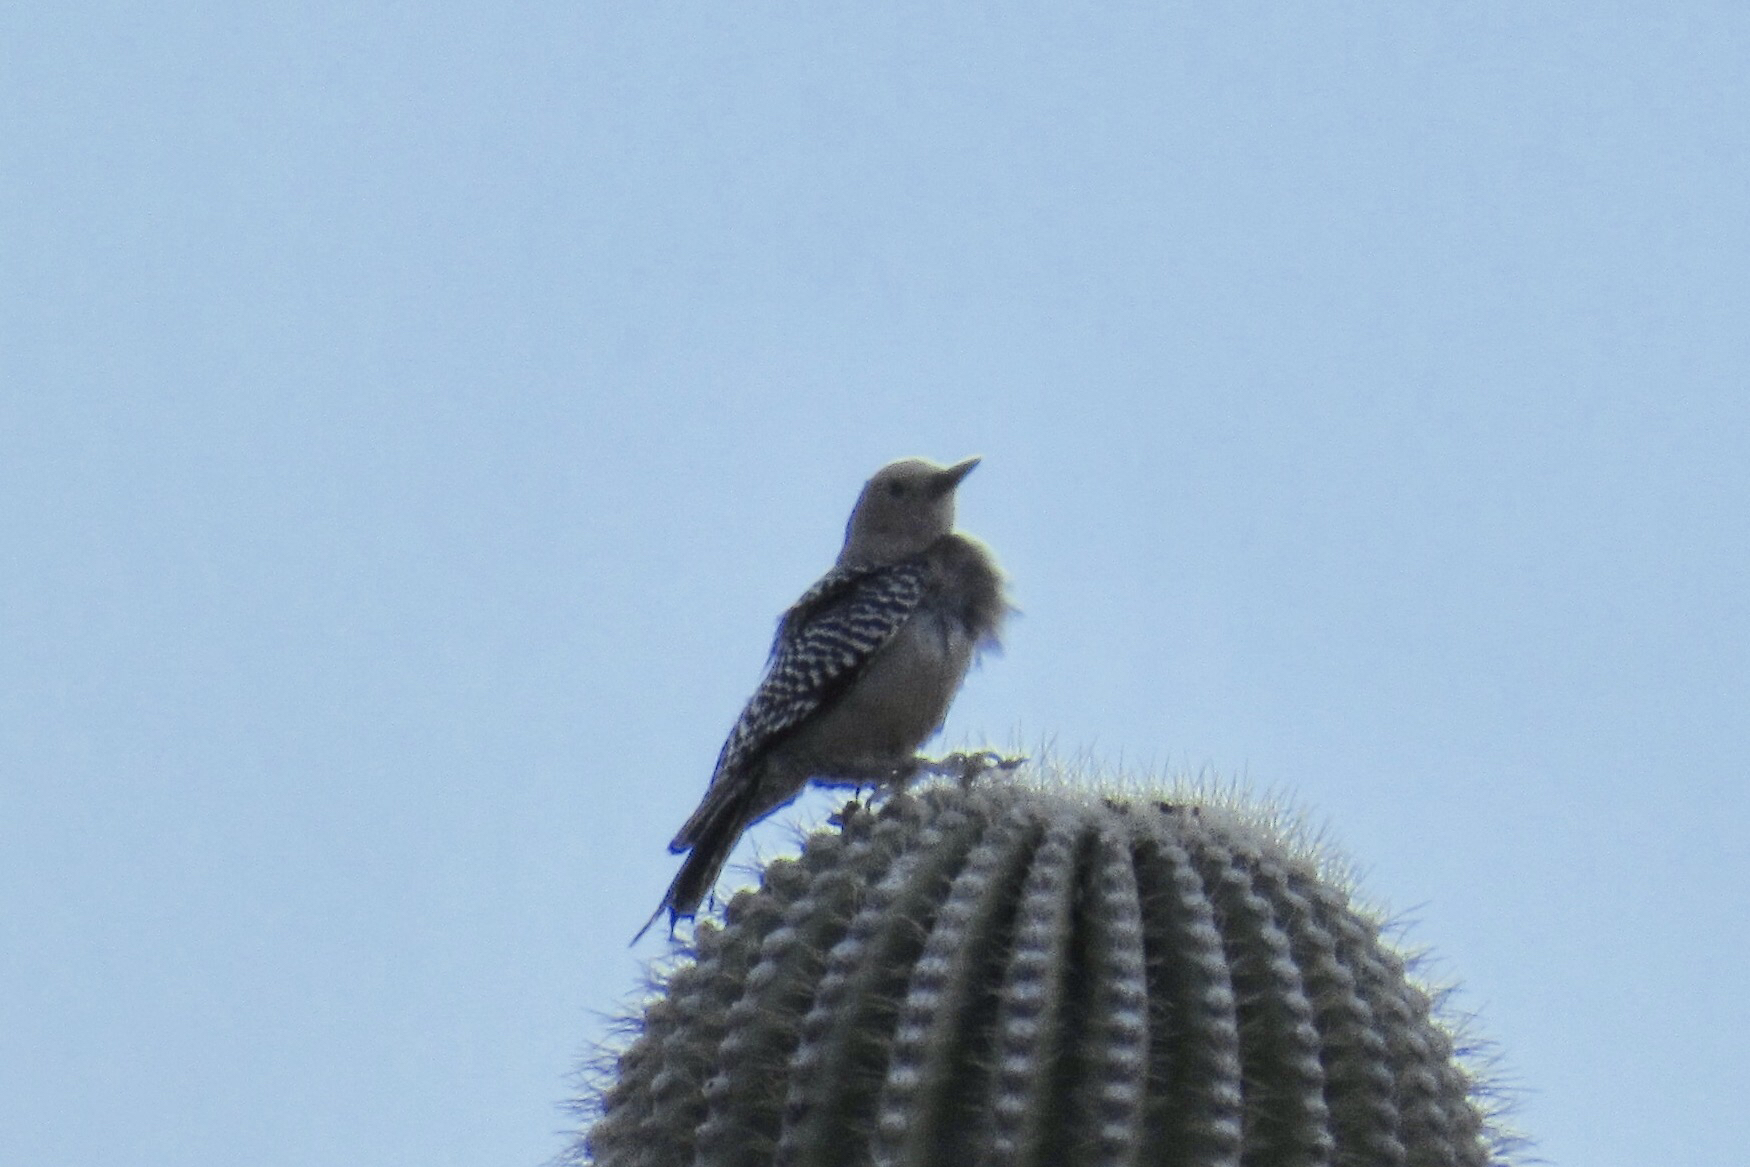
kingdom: Animalia
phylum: Chordata
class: Aves
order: Piciformes
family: Picidae
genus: Melanerpes
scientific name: Melanerpes uropygialis
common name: Gila woodpecker
